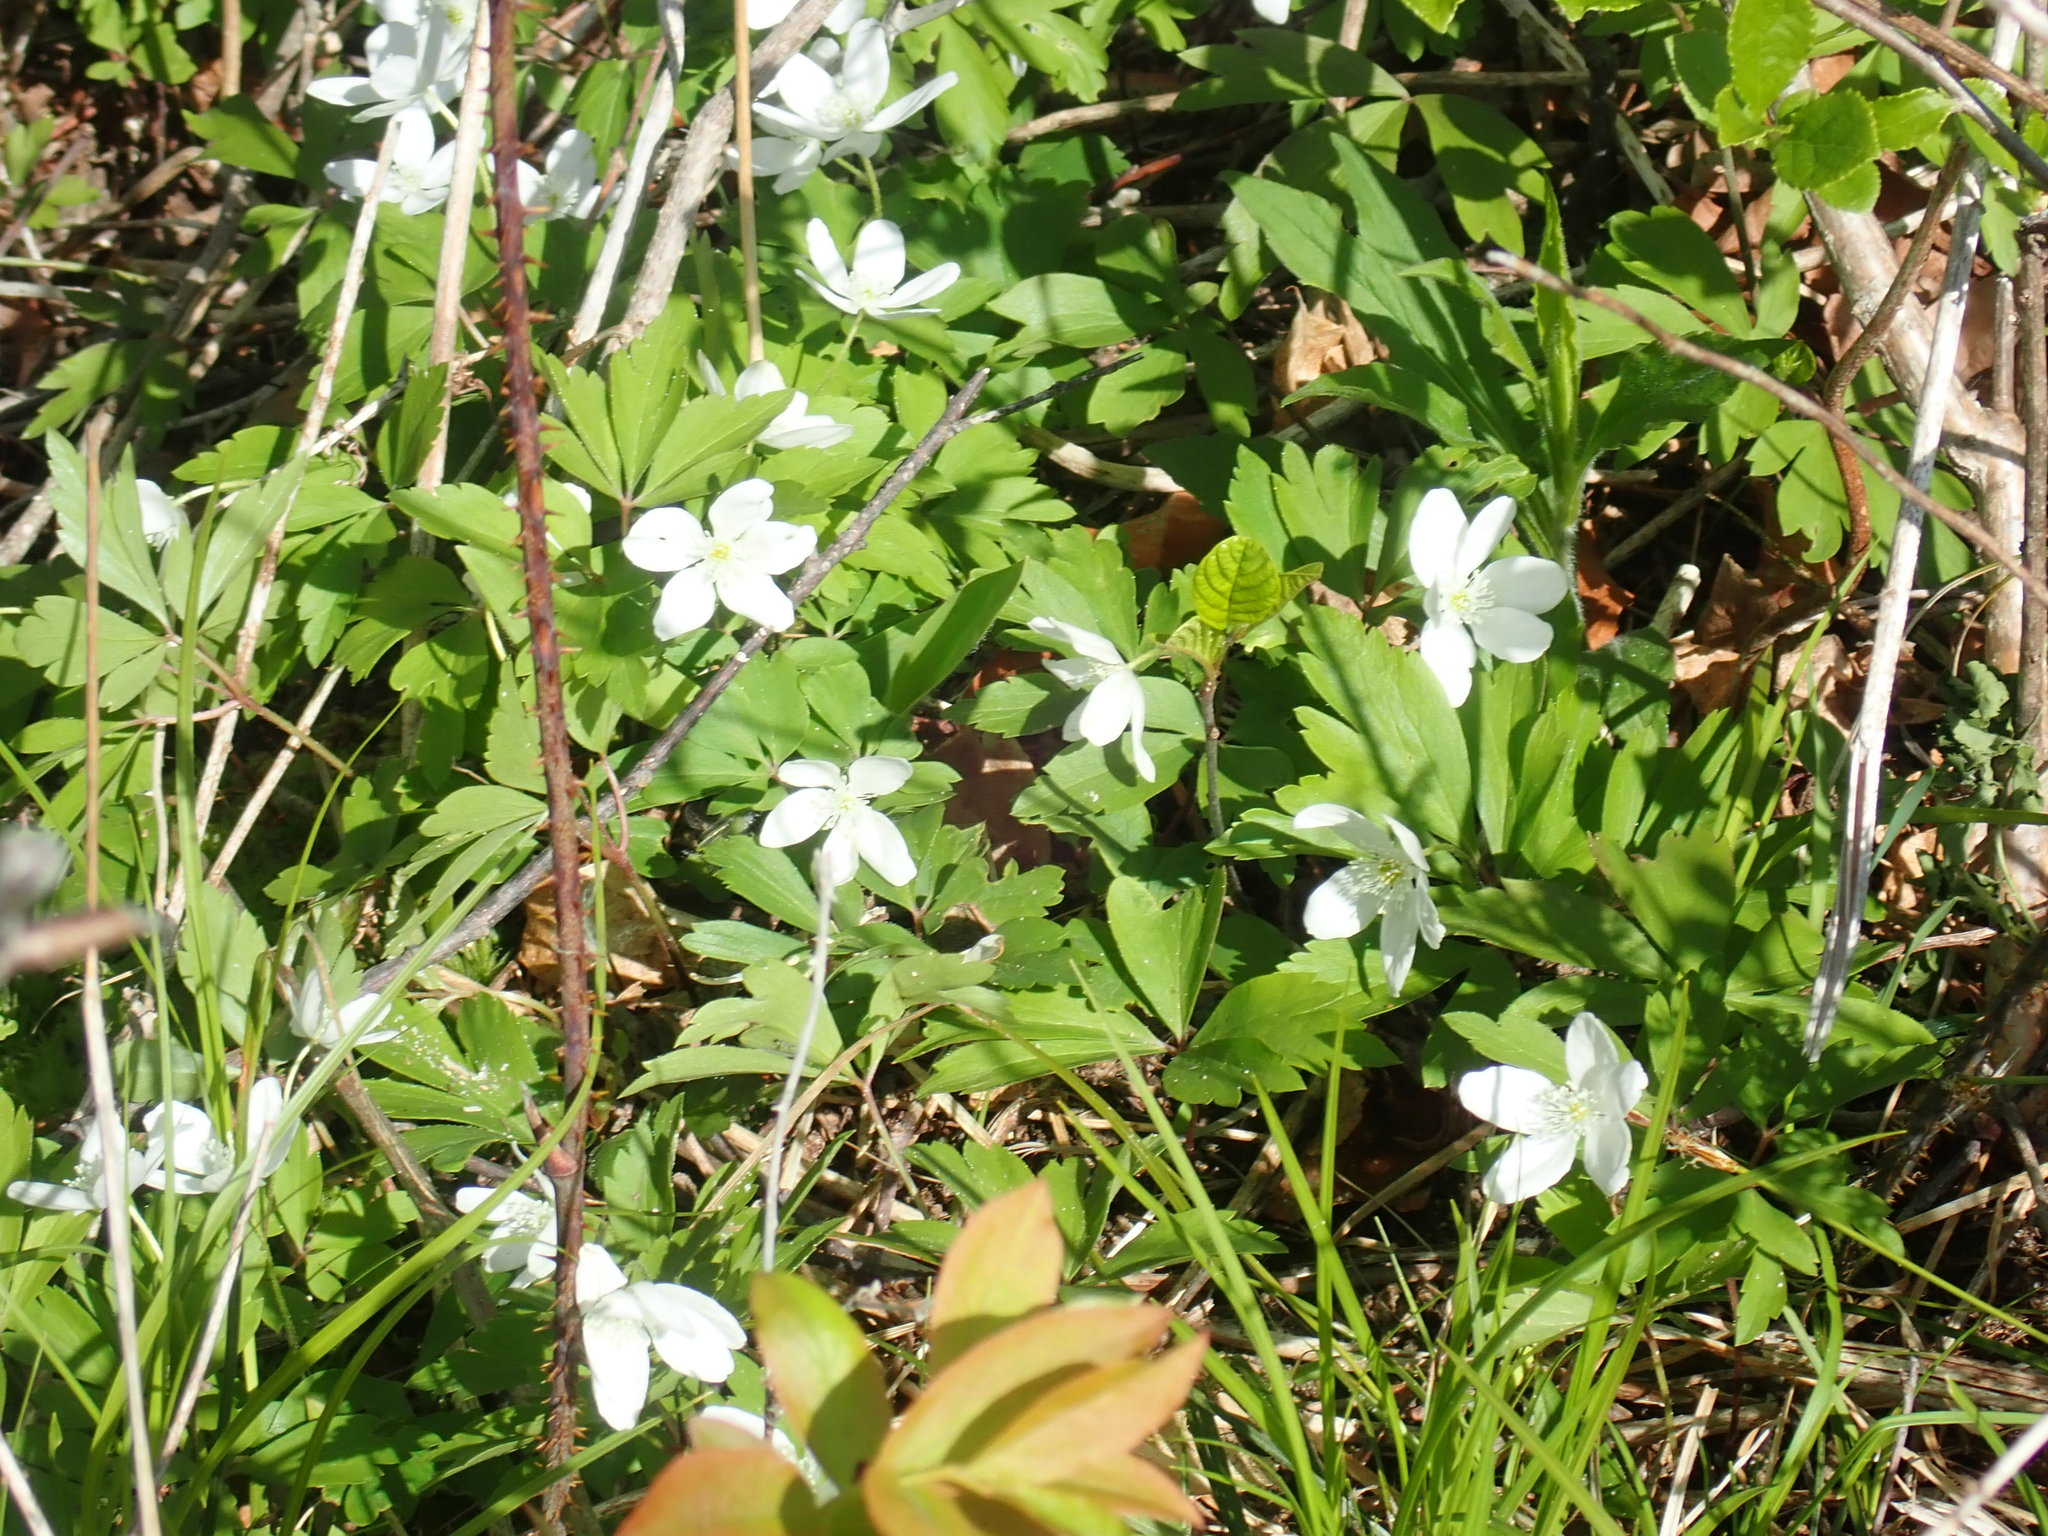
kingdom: Plantae
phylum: Tracheophyta
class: Magnoliopsida
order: Ranunculales
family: Ranunculaceae
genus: Anemone
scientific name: Anemone quinquefolia
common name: Wood anemone
